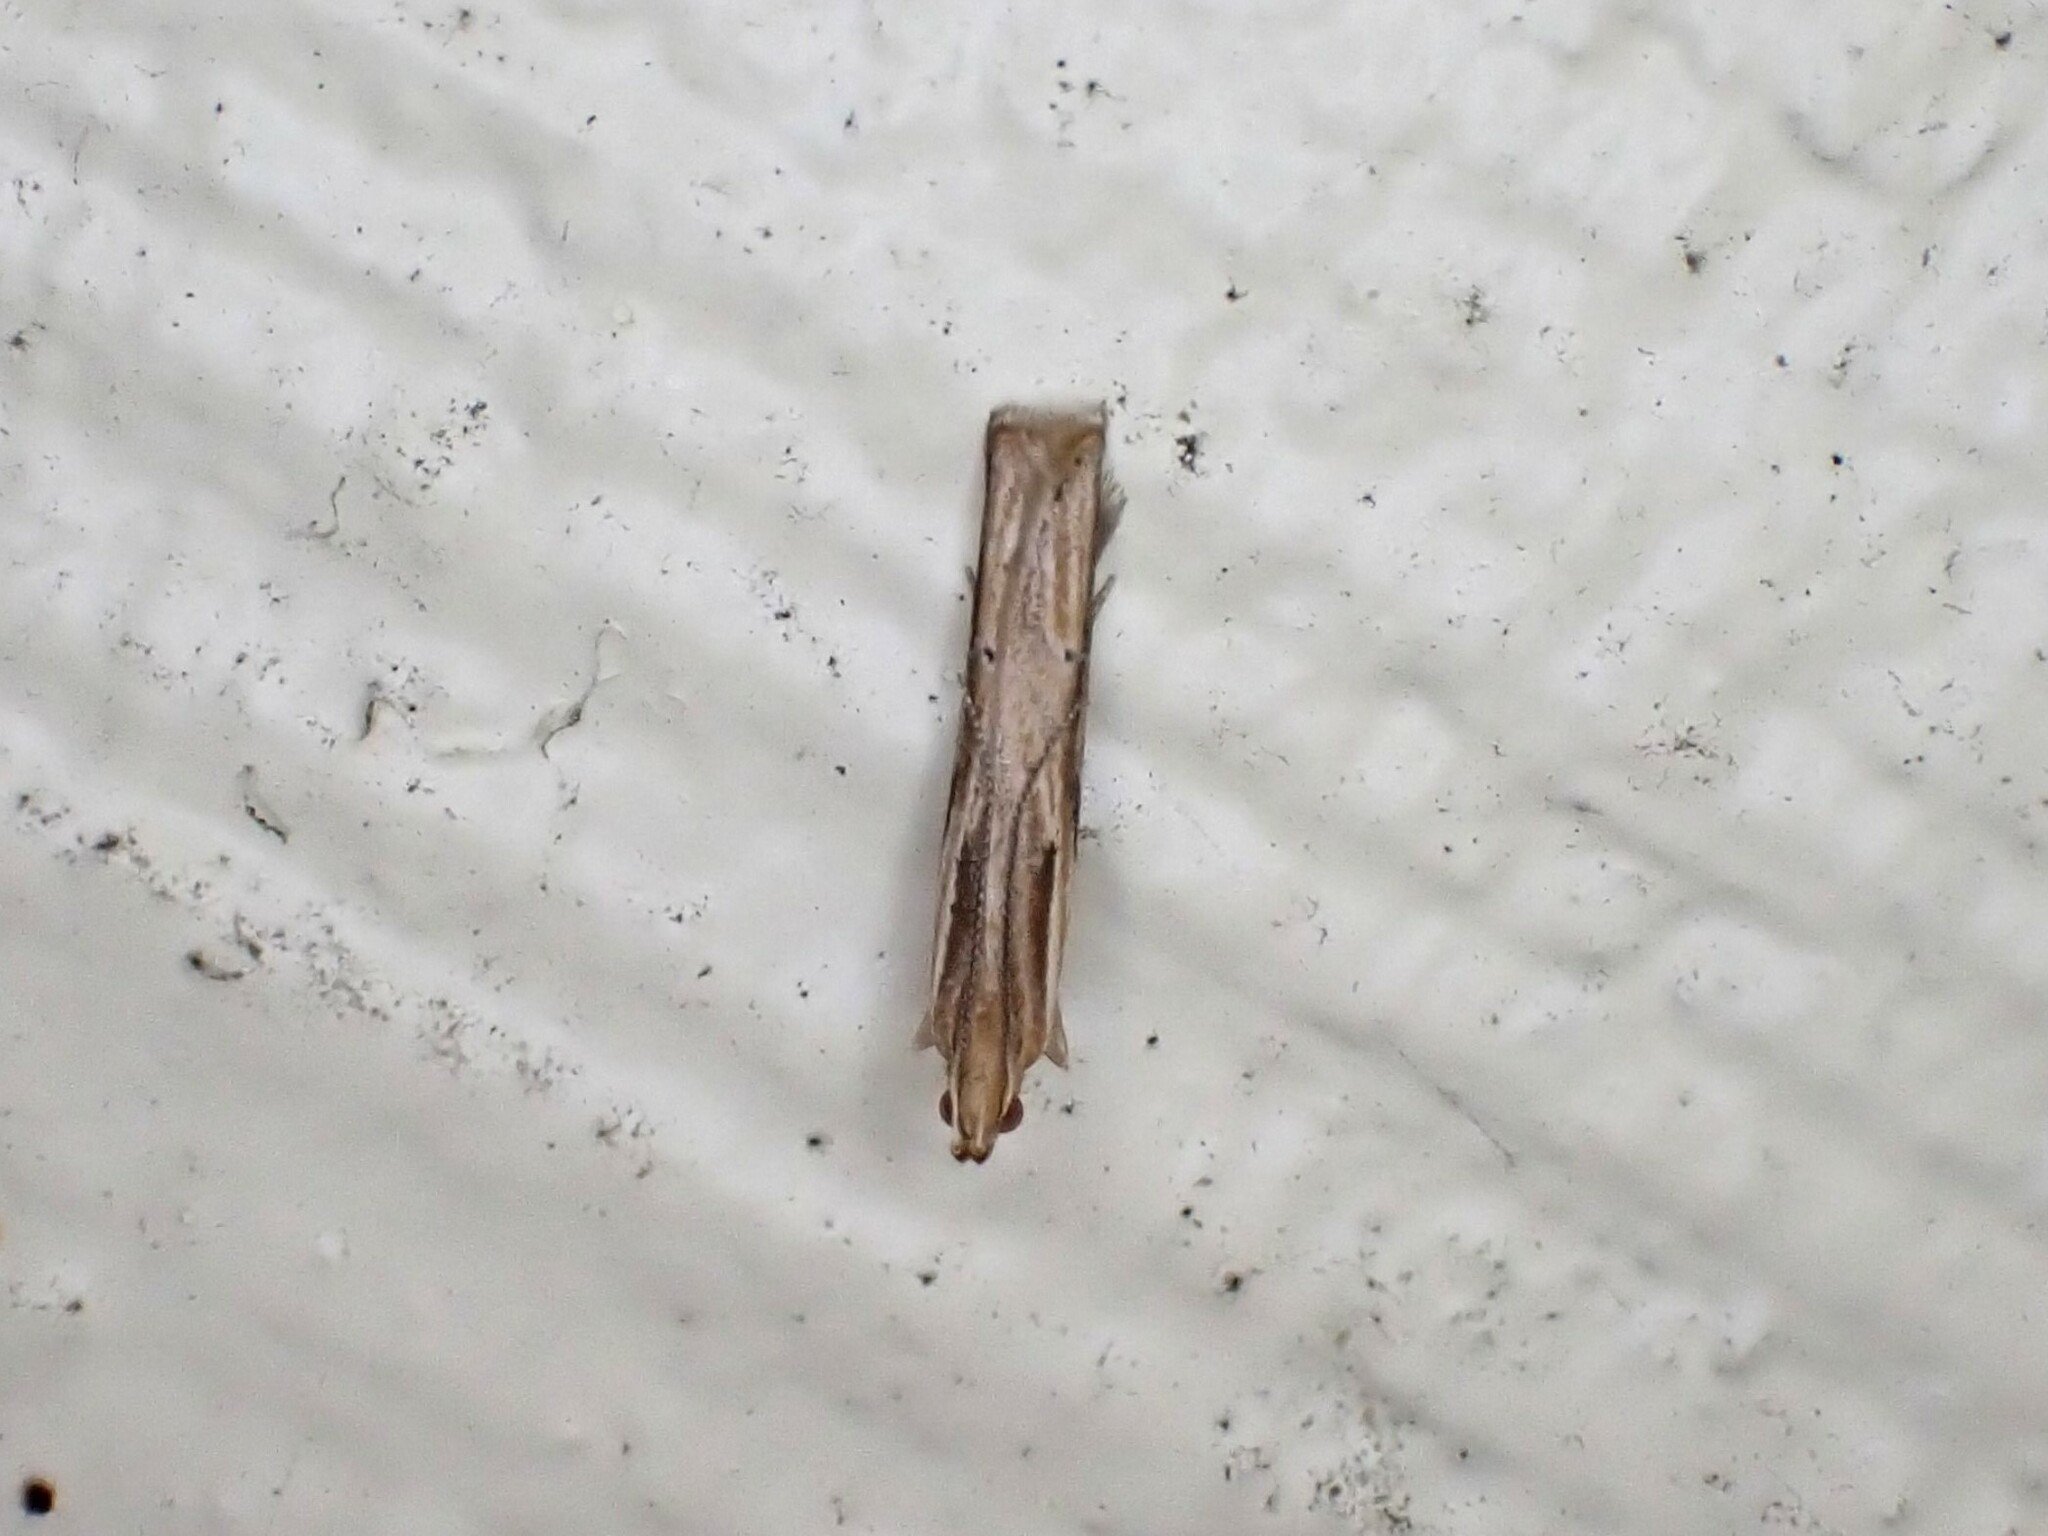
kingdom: Animalia
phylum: Arthropoda
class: Insecta
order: Lepidoptera
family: Depressariidae
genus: Eutorna
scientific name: Eutorna symmorpha
